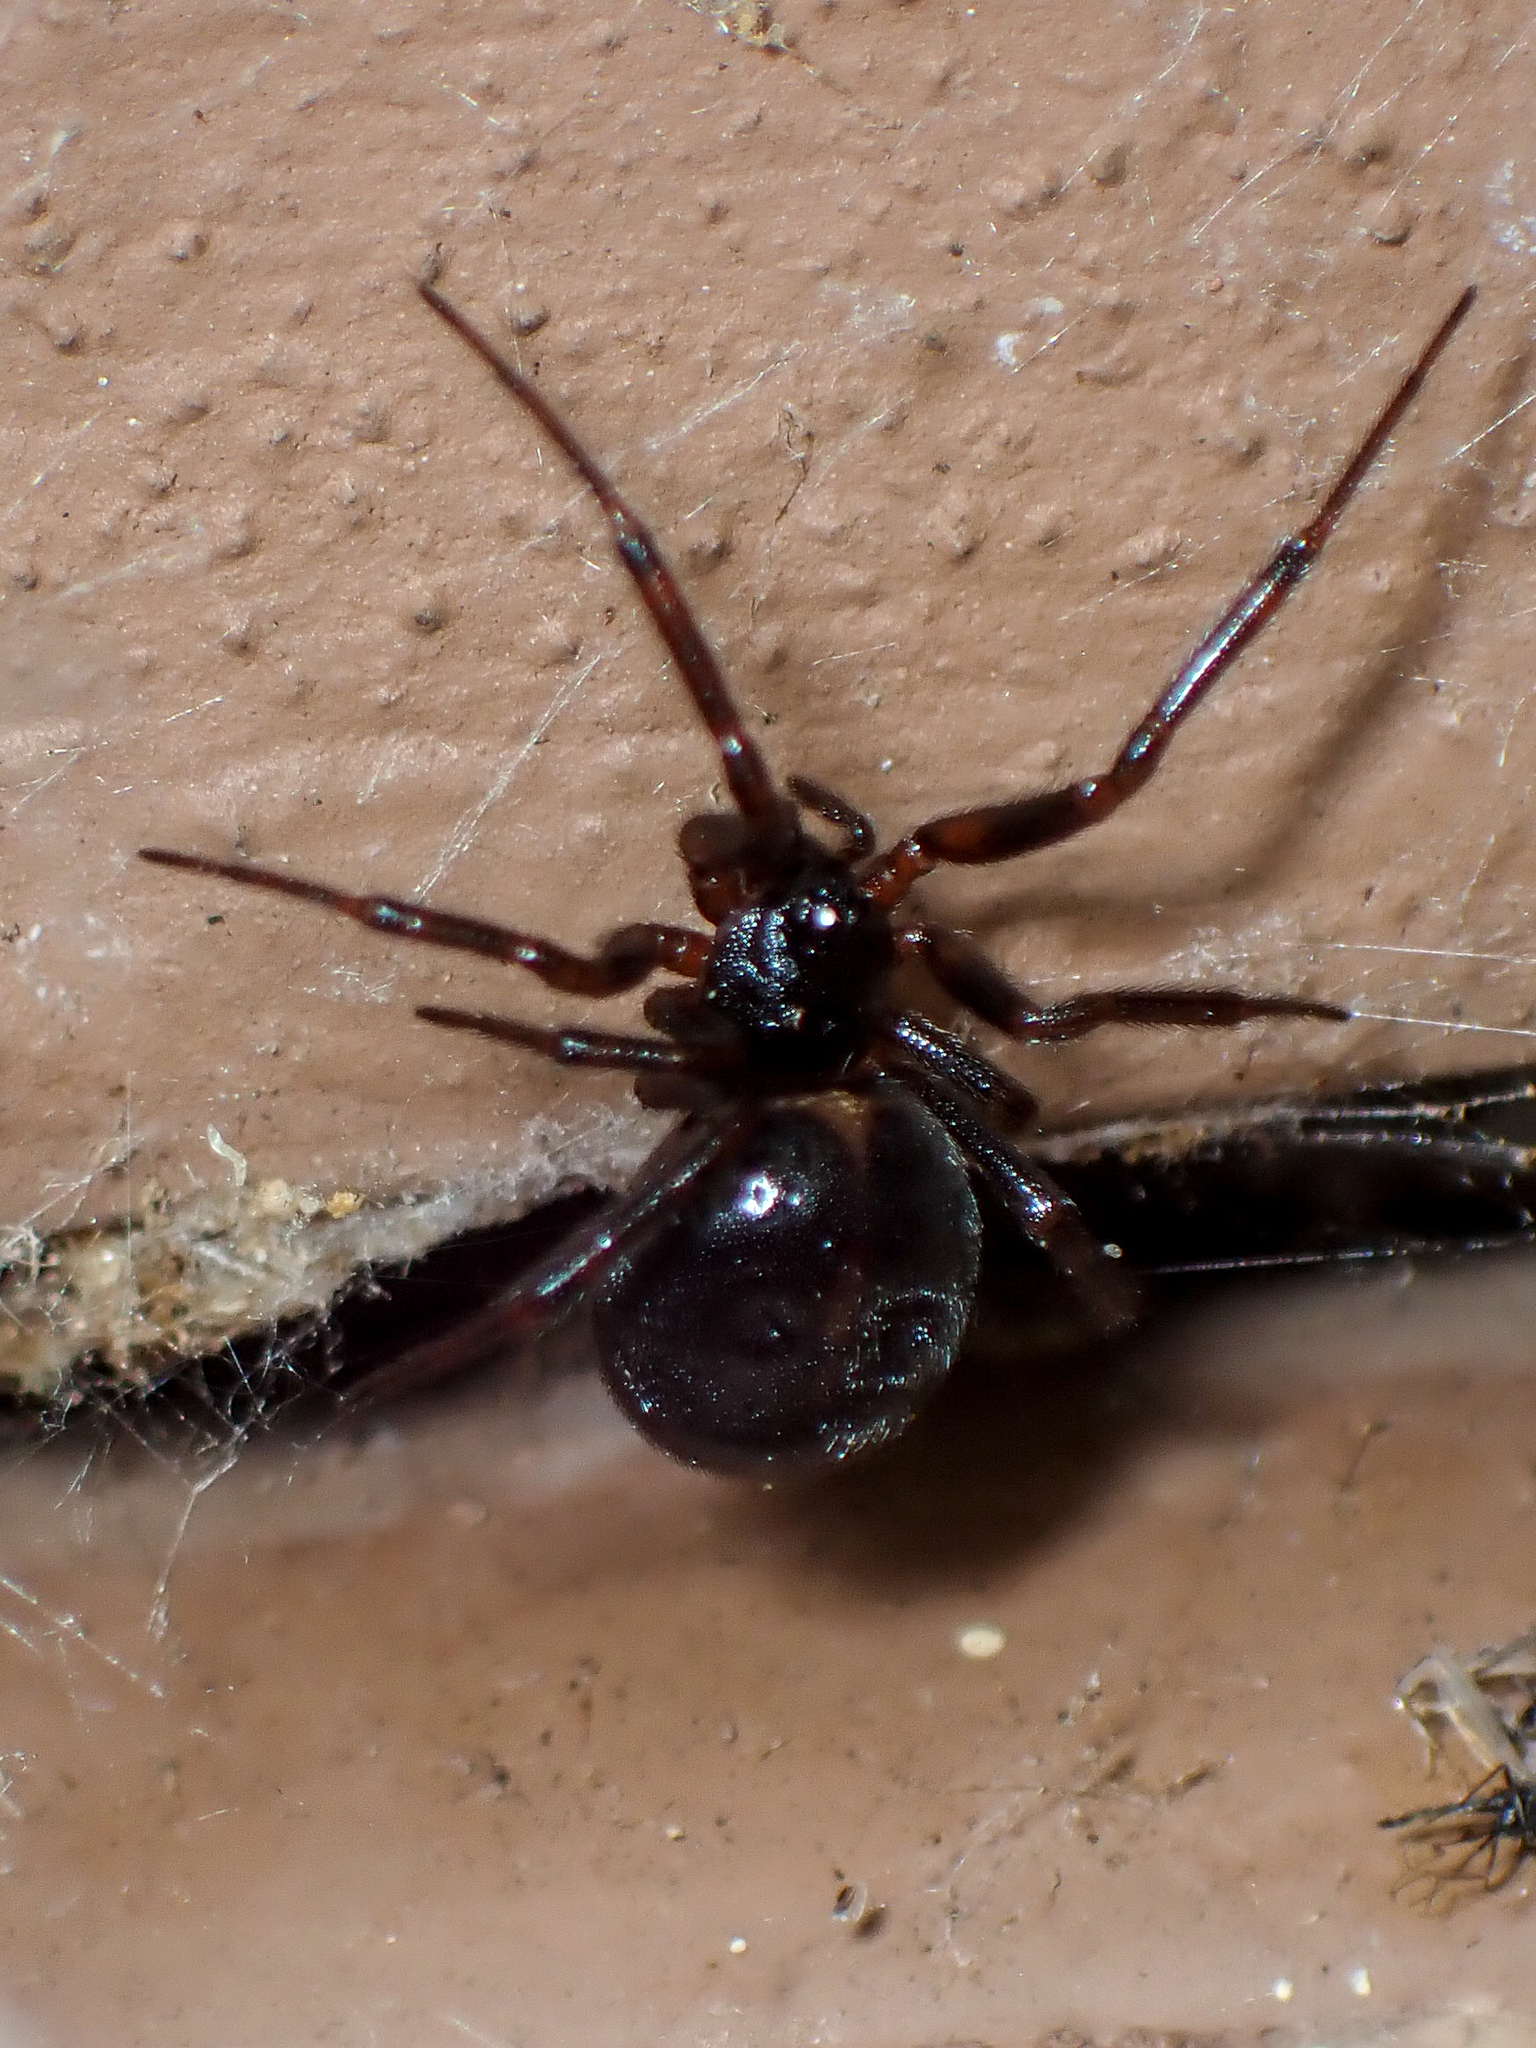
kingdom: Animalia
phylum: Arthropoda
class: Arachnida
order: Araneae
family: Theridiidae
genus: Steatoda
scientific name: Steatoda borealis
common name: Boreal combfoot
